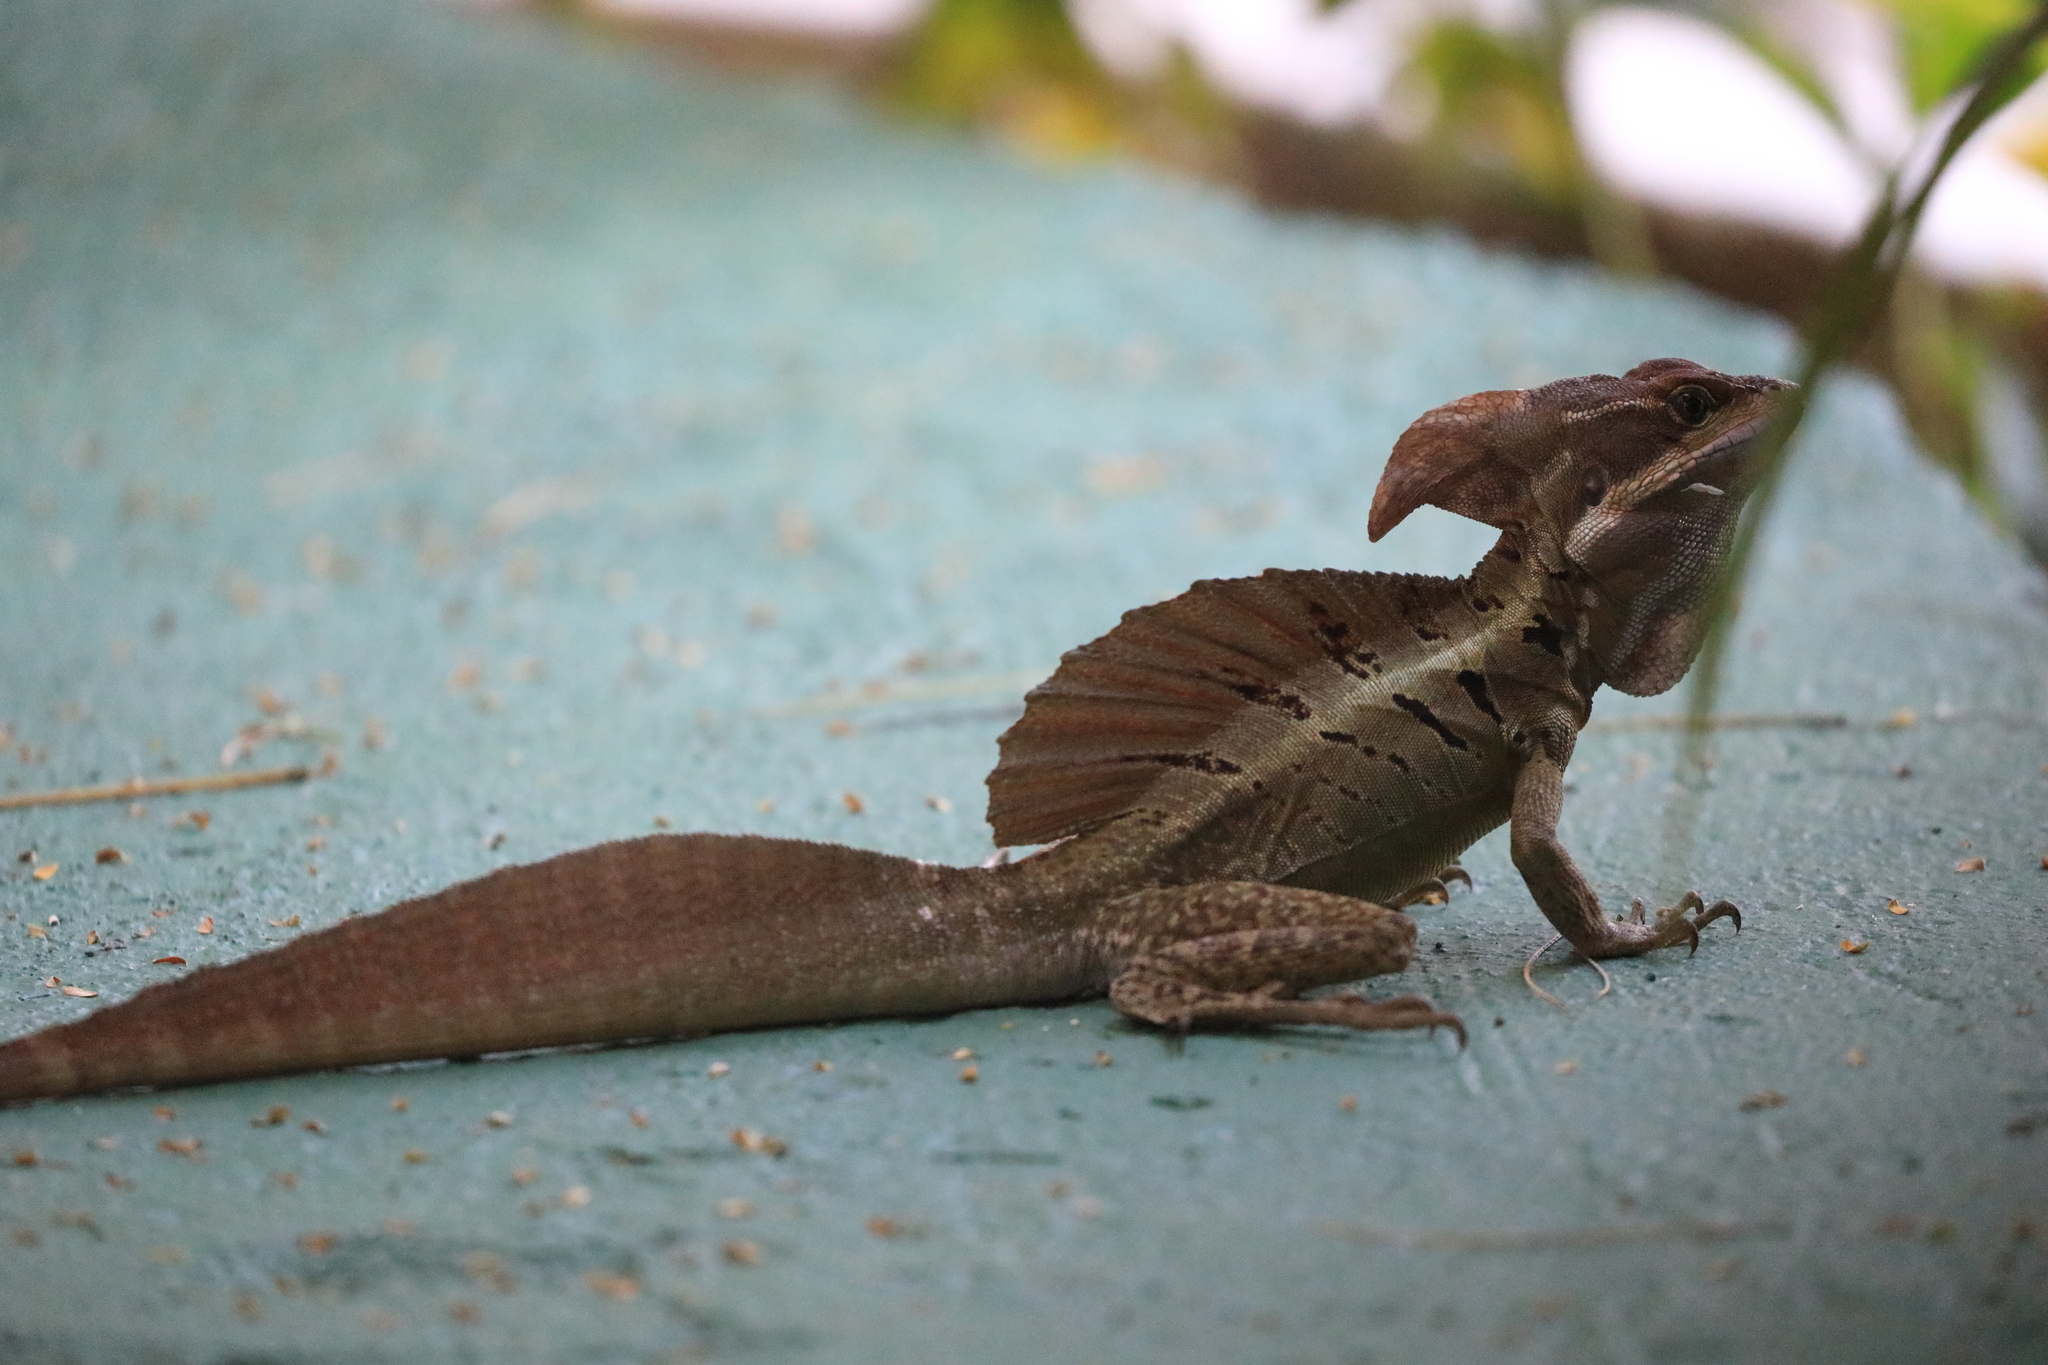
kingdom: Animalia
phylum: Chordata
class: Squamata
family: Corytophanidae
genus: Basiliscus
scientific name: Basiliscus basiliscus
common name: Common basilisk
